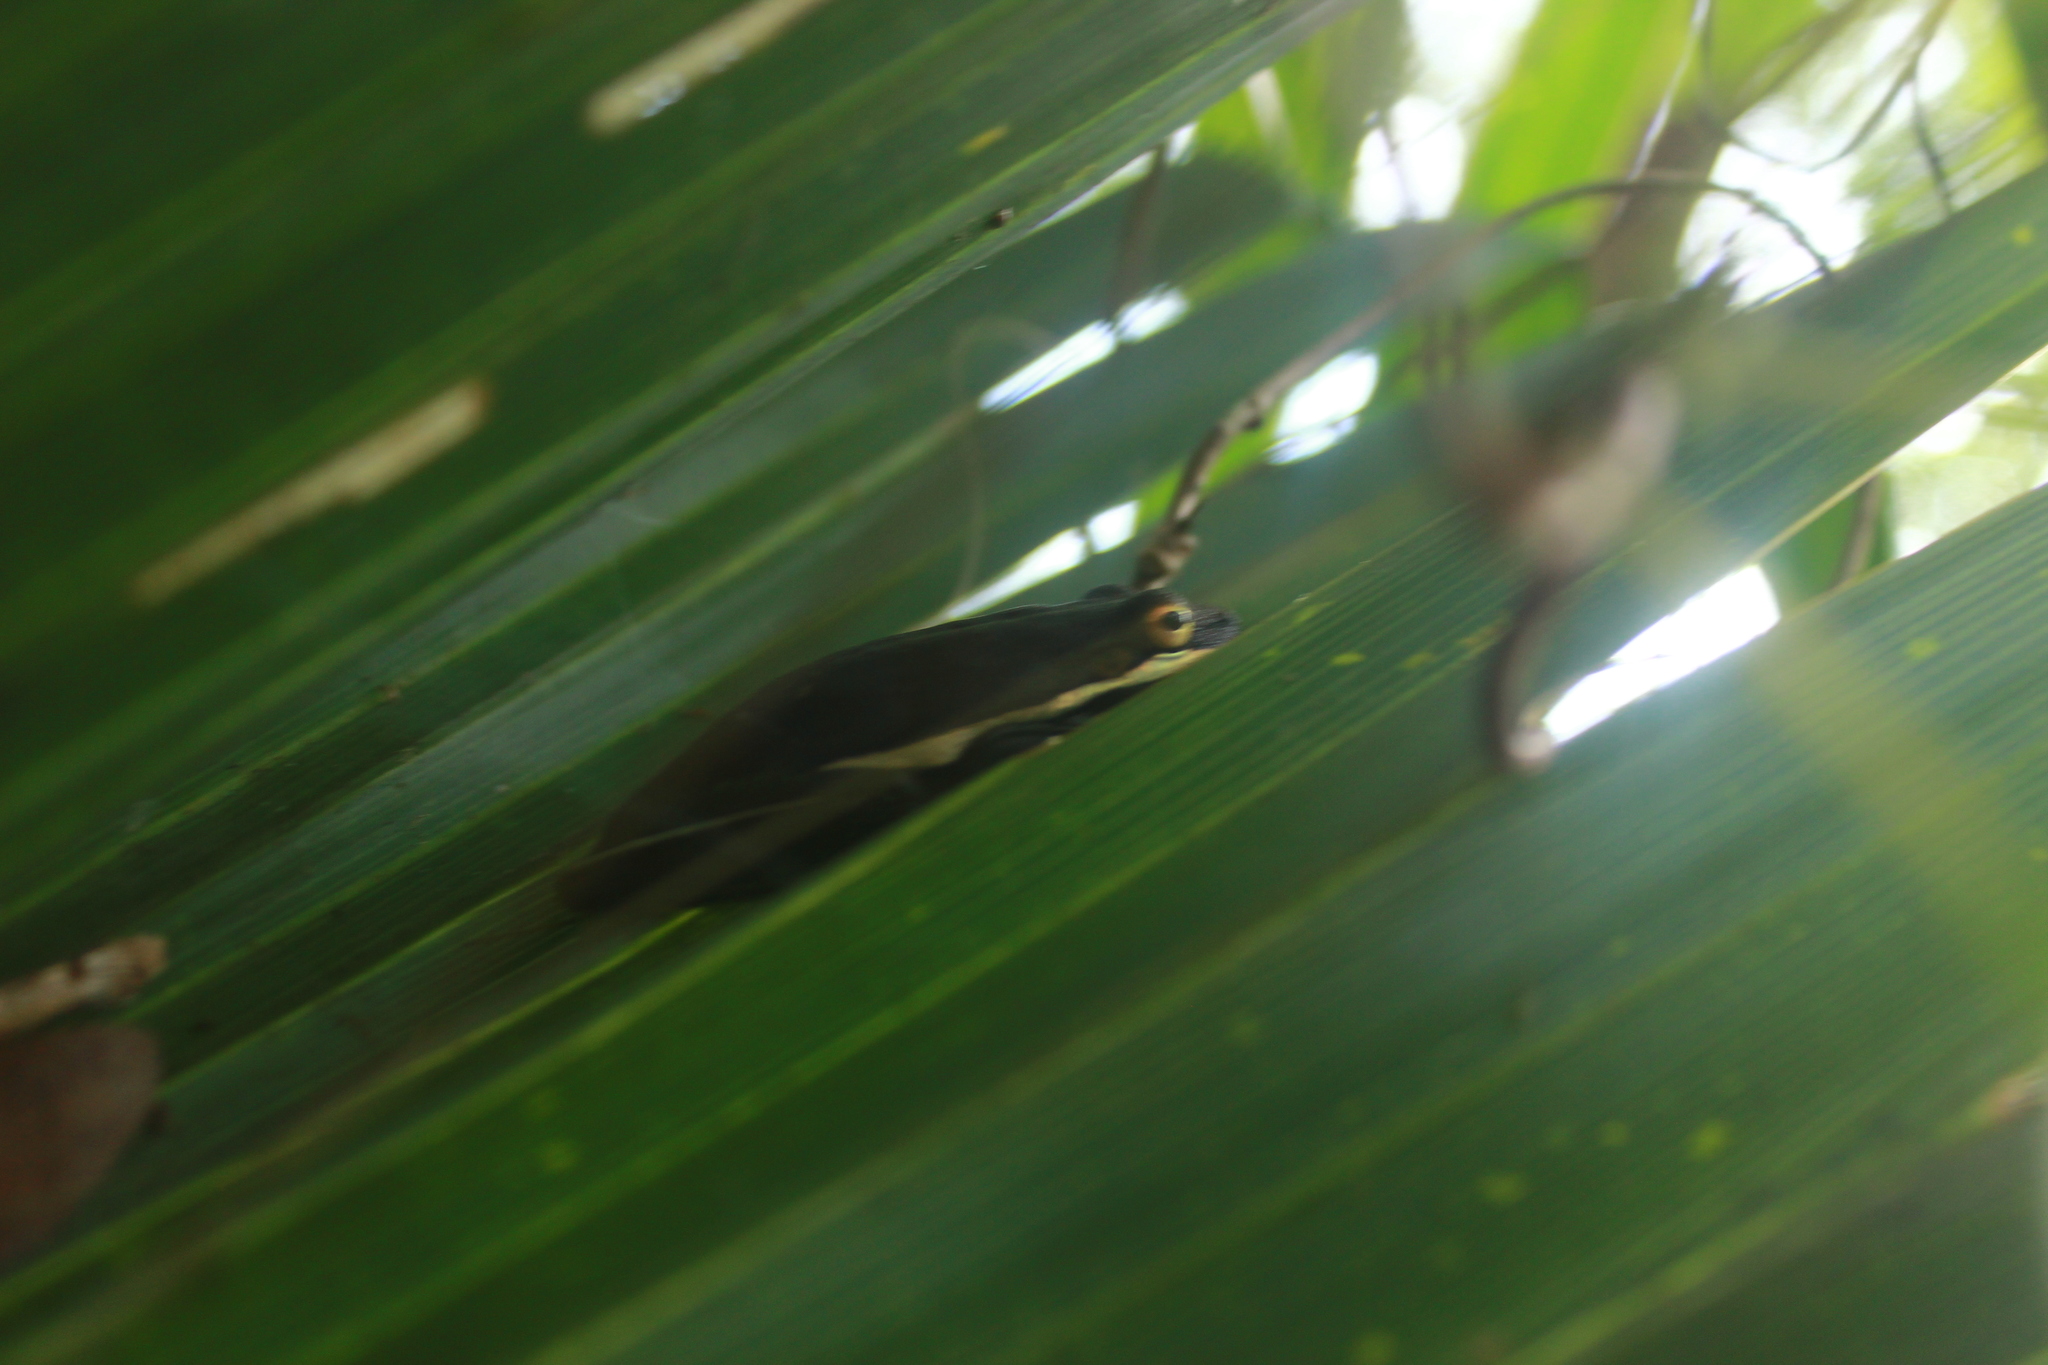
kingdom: Animalia
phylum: Chordata
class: Amphibia
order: Anura
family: Hylidae
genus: Dryophytes
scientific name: Dryophytes cinereus
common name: Green treefrog
